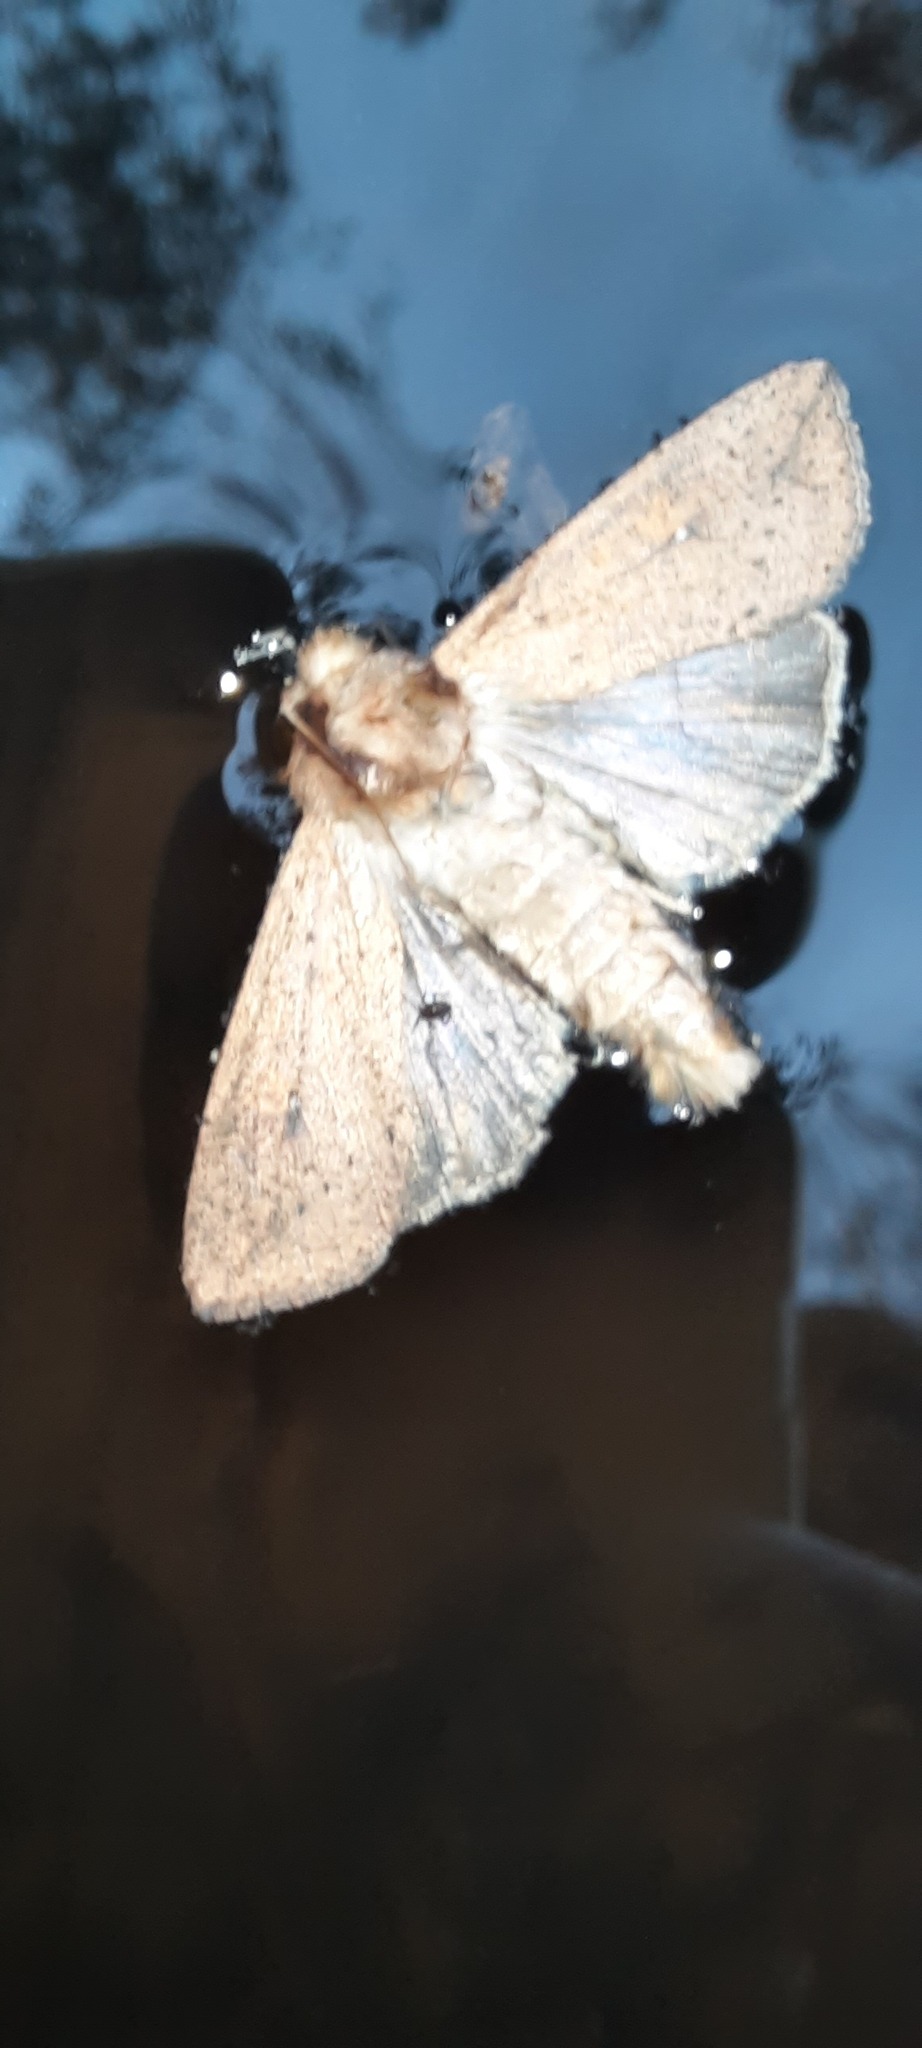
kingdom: Animalia
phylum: Arthropoda
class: Insecta
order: Lepidoptera
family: Noctuidae
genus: Mythimna
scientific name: Mythimna convecta
